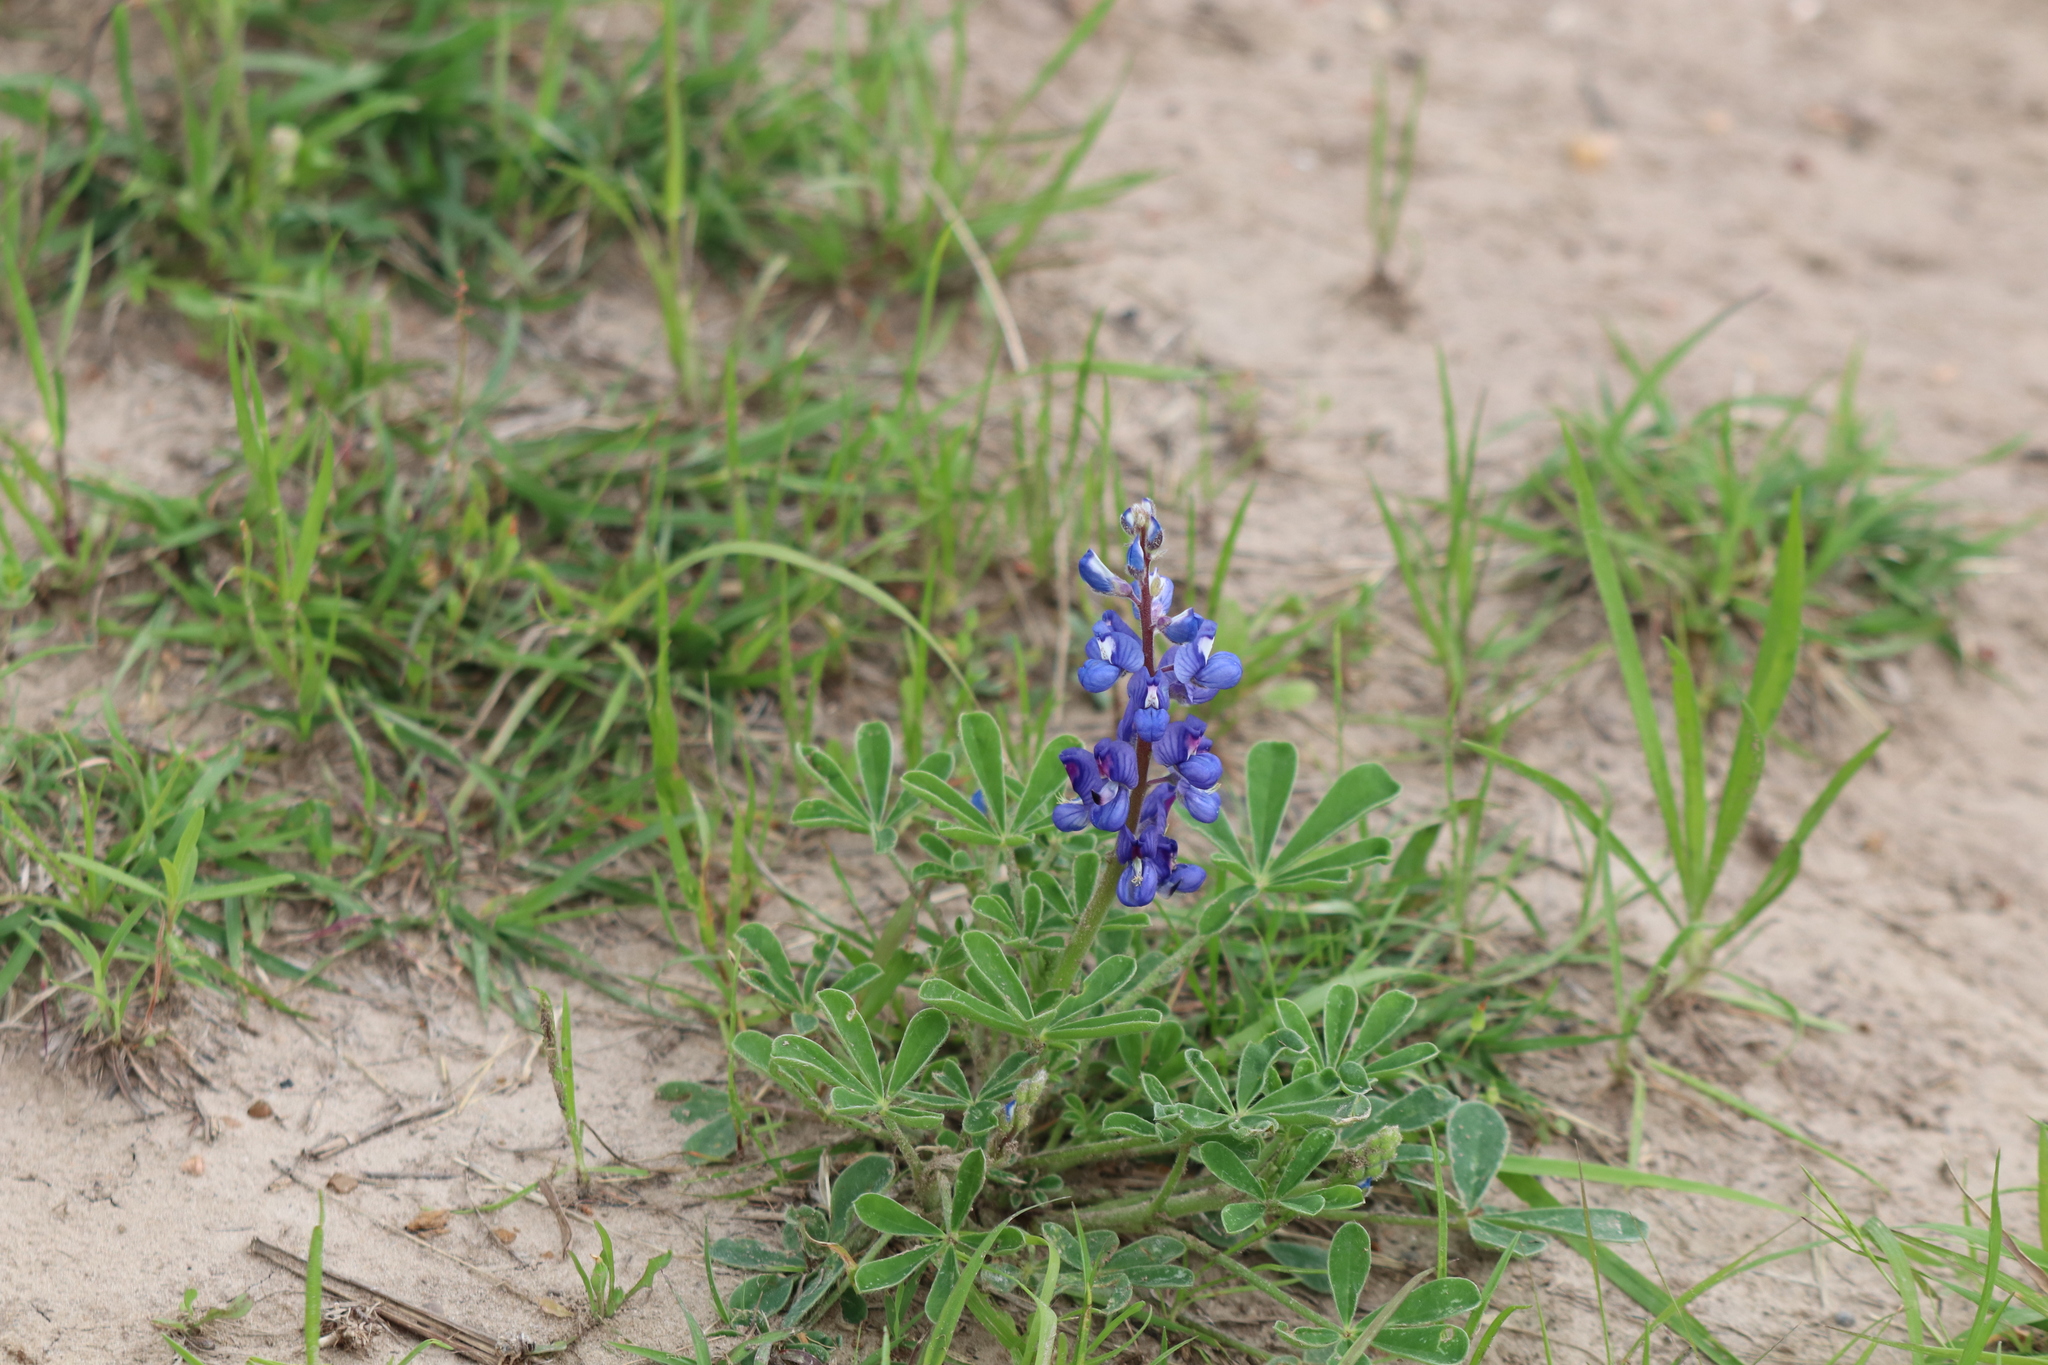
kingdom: Plantae
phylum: Tracheophyta
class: Magnoliopsida
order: Fabales
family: Fabaceae
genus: Lupinus
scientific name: Lupinus subcarnosus
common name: Texas bluebonnet
